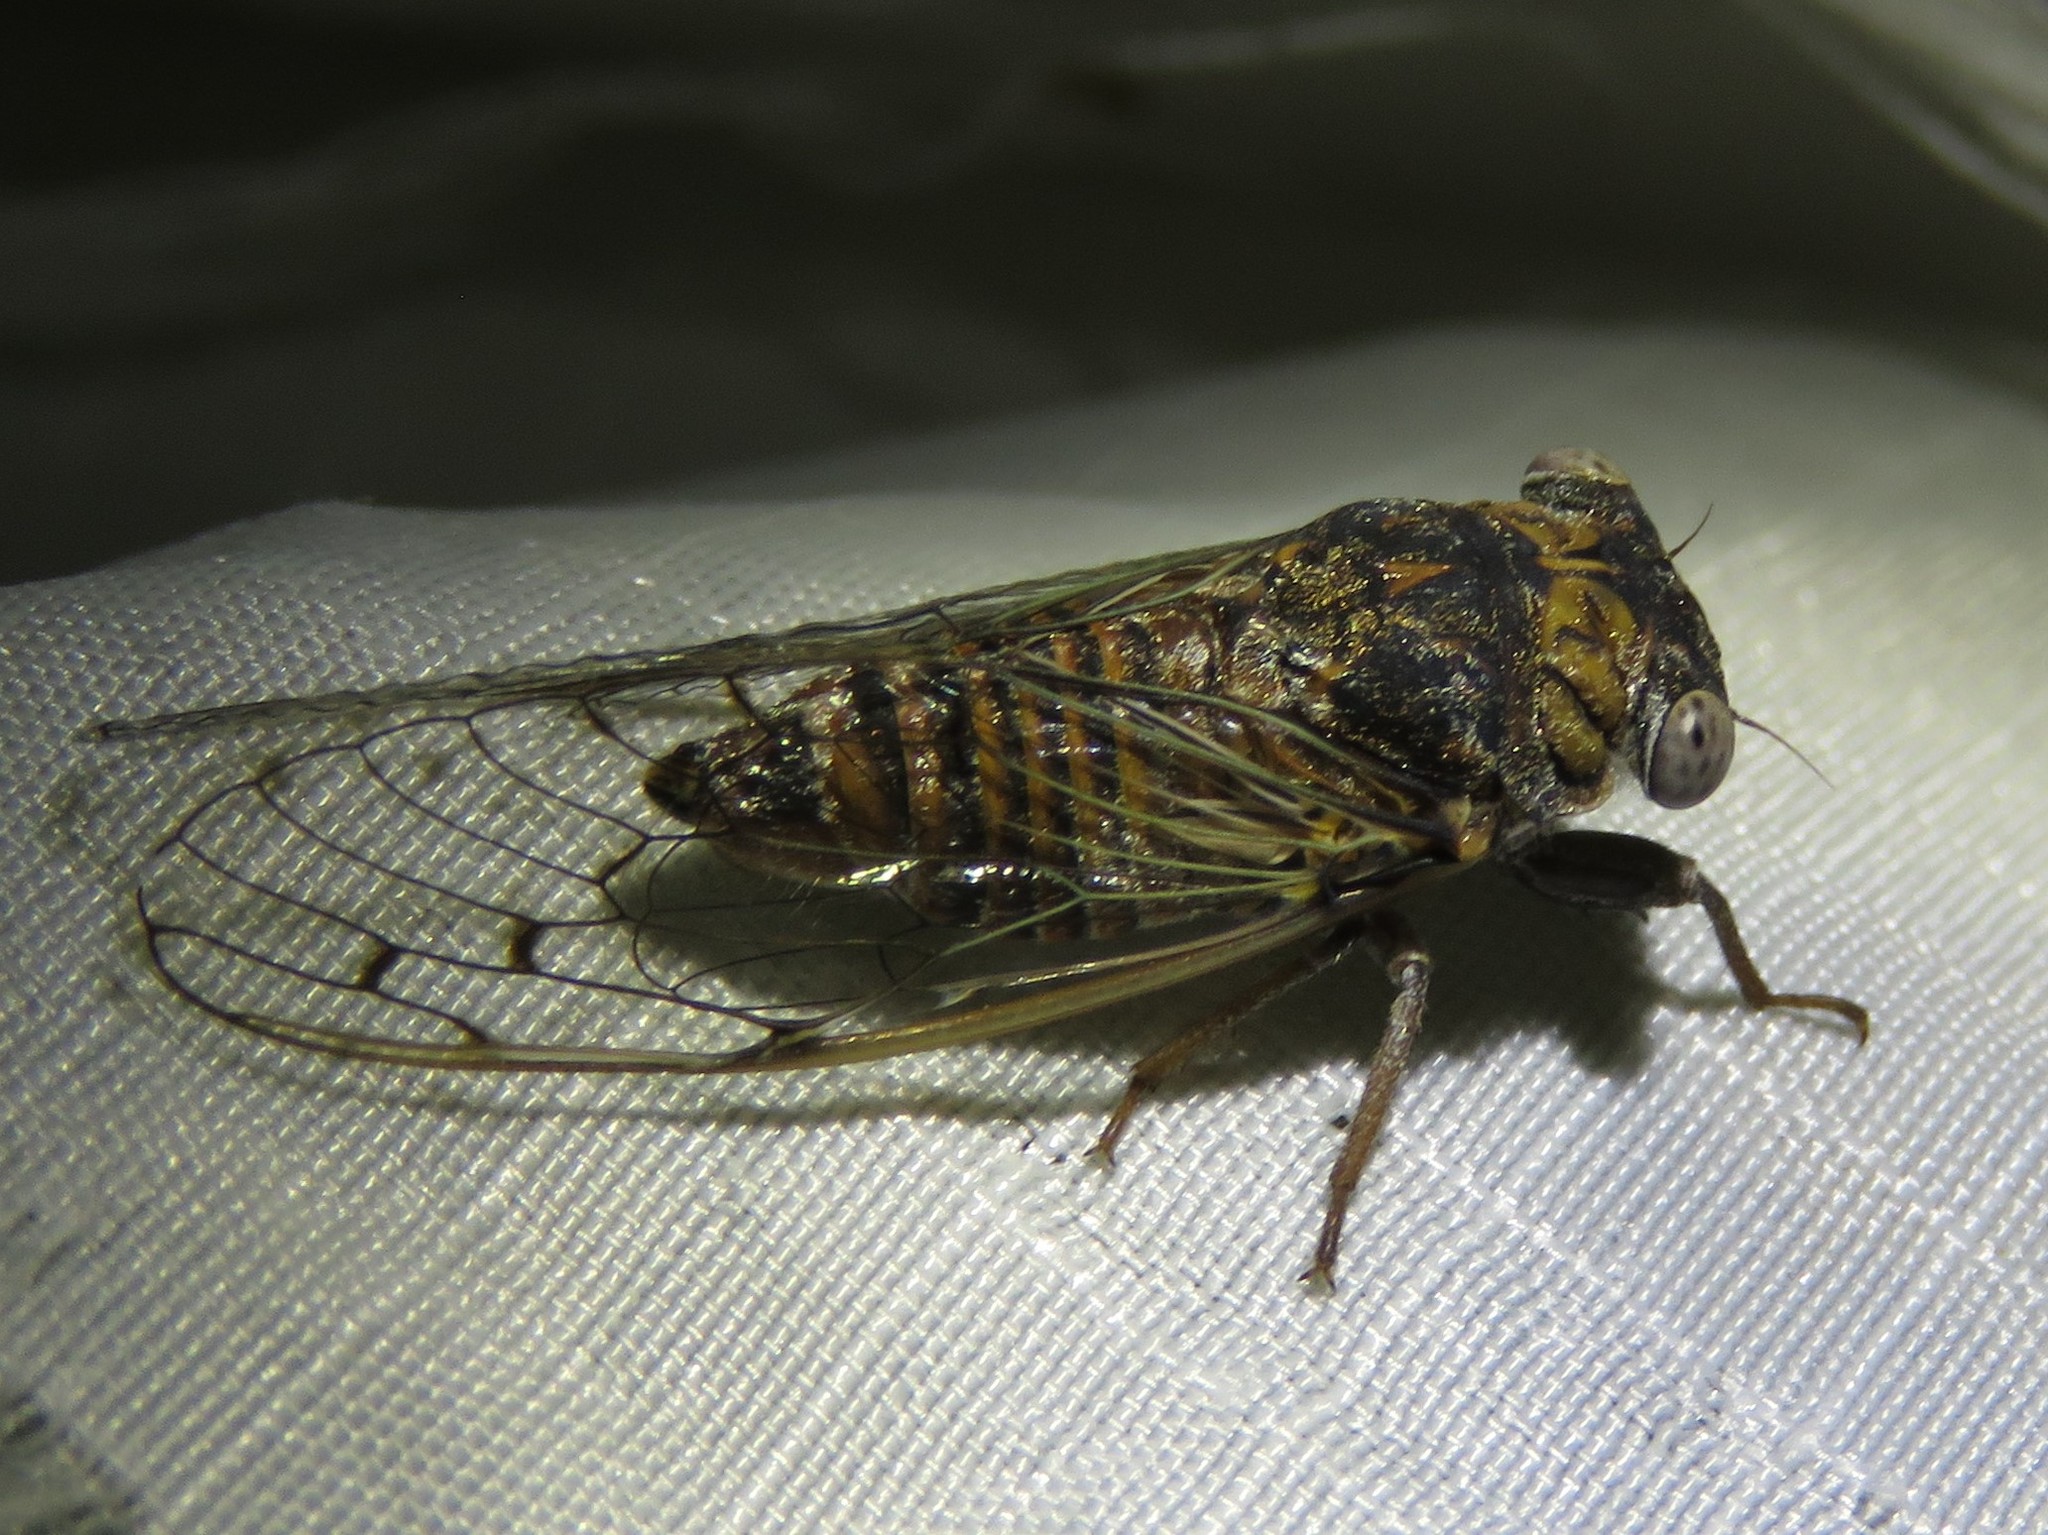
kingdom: Animalia
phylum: Arthropoda
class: Insecta
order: Hemiptera
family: Cicadidae
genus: Pacarina
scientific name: Pacarina puella
